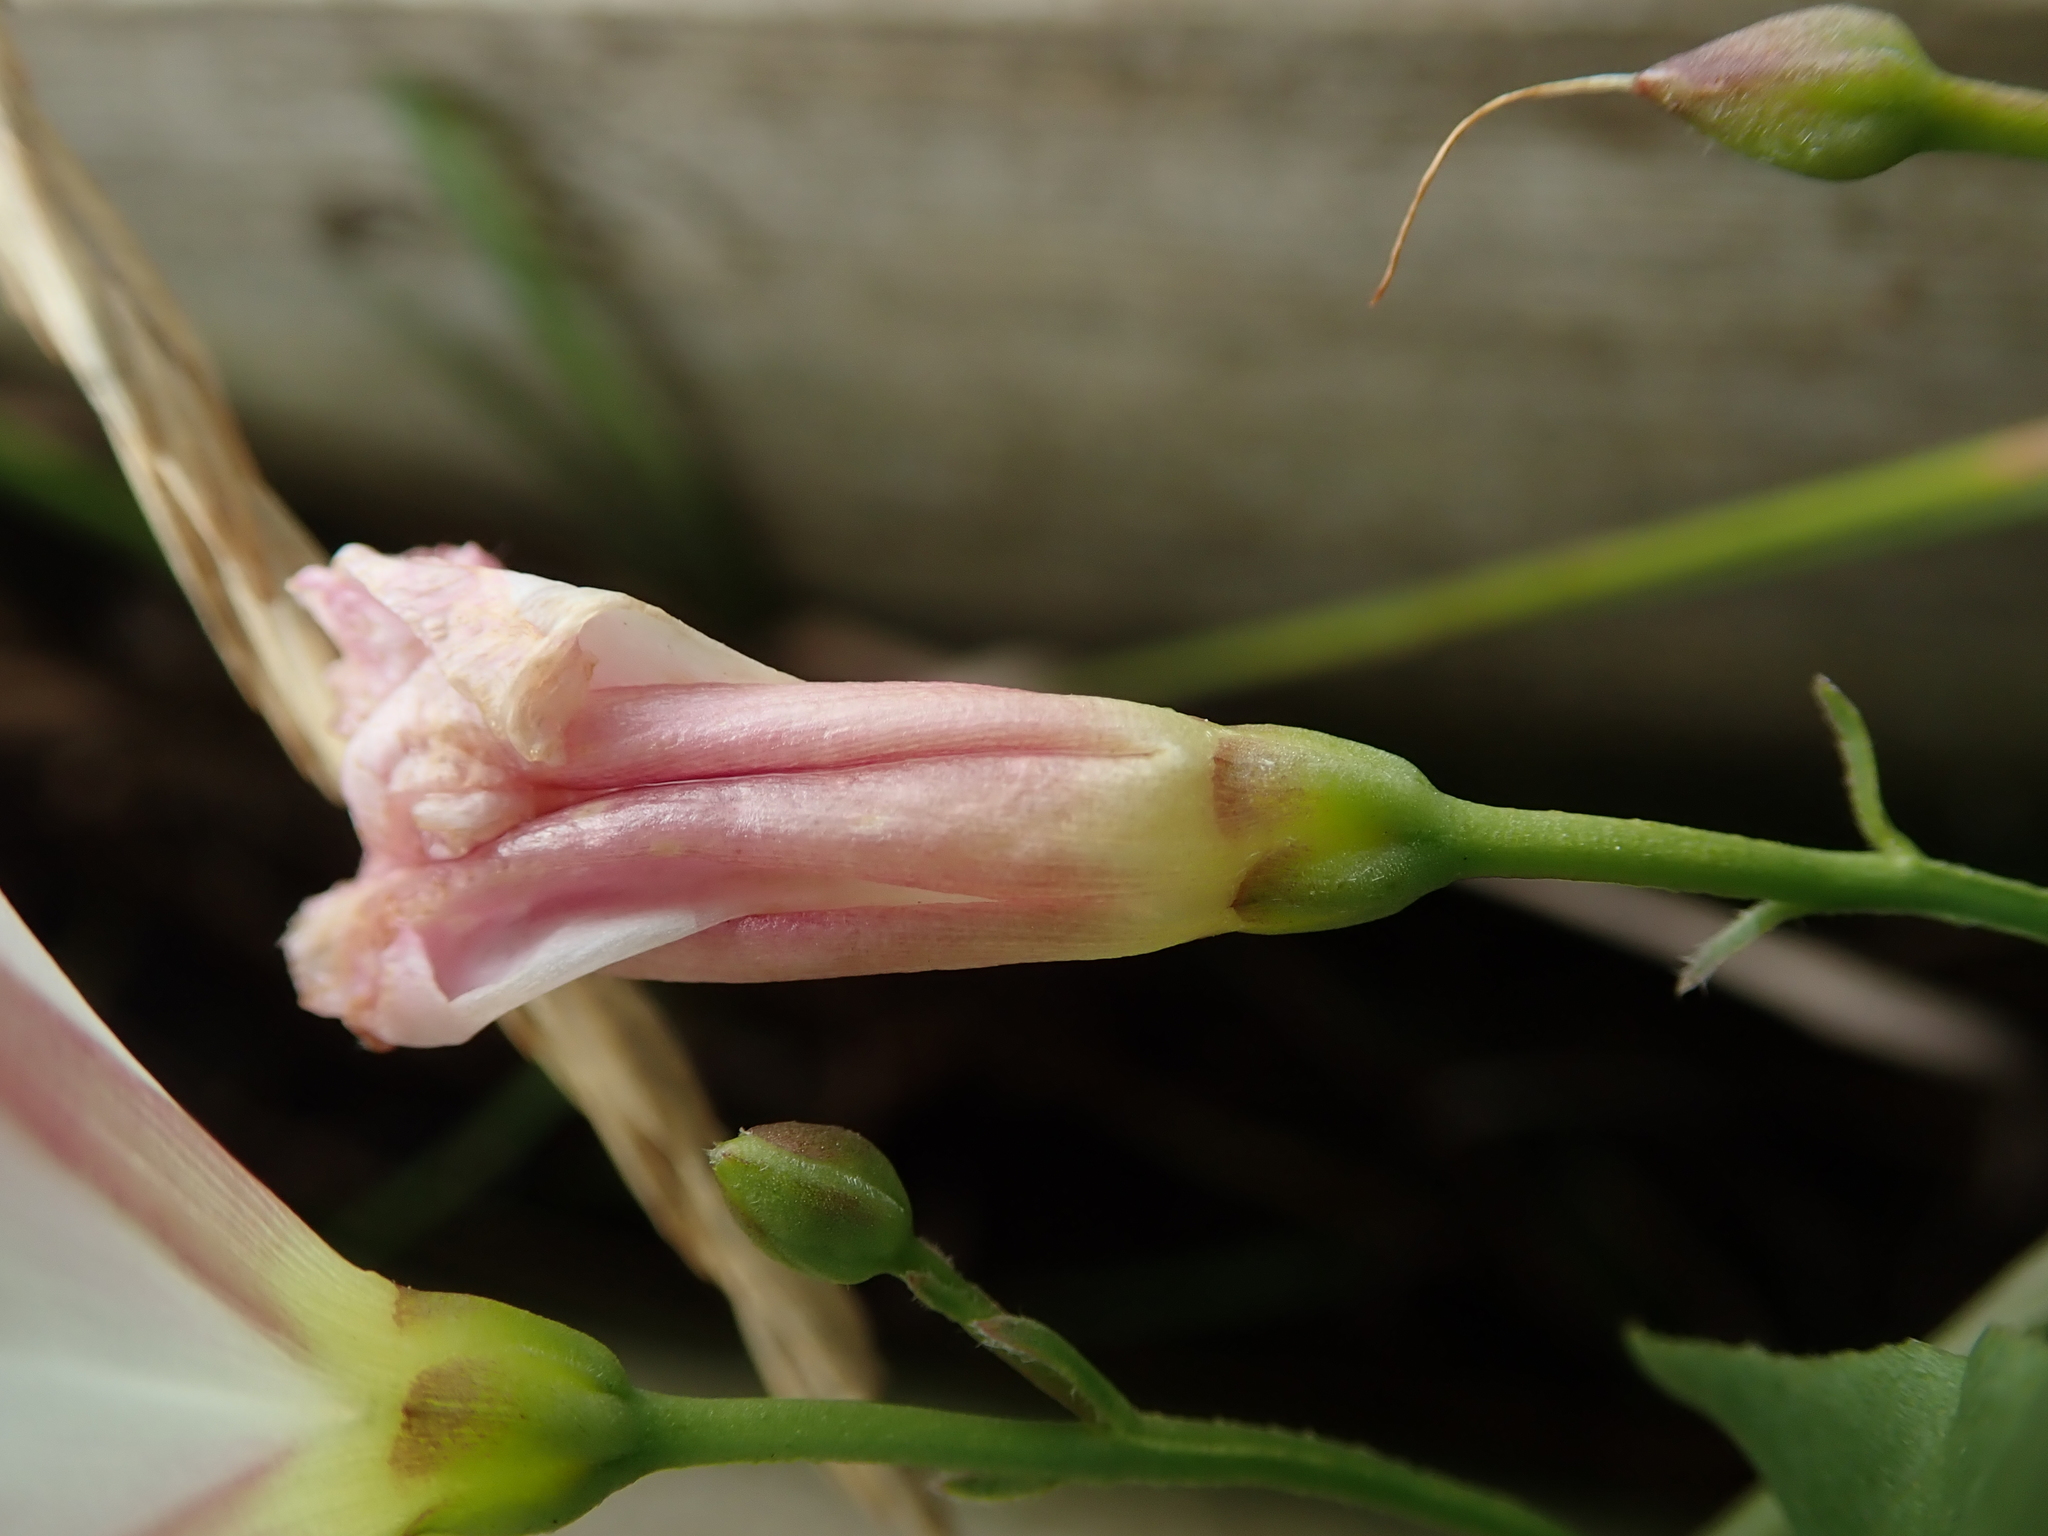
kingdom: Plantae
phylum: Tracheophyta
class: Magnoliopsida
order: Solanales
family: Convolvulaceae
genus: Convolvulus
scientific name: Convolvulus arvensis
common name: Field bindweed
